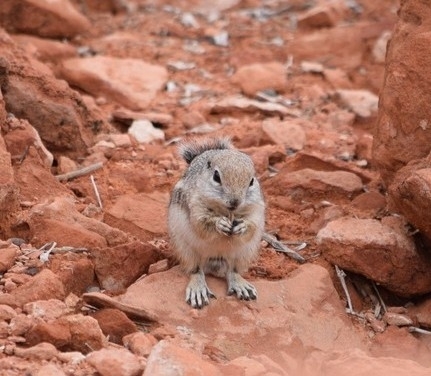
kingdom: Animalia
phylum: Chordata
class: Mammalia
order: Rodentia
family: Sciuridae
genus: Ammospermophilus
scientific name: Ammospermophilus leucurus
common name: White-tailed antelope squirrel
